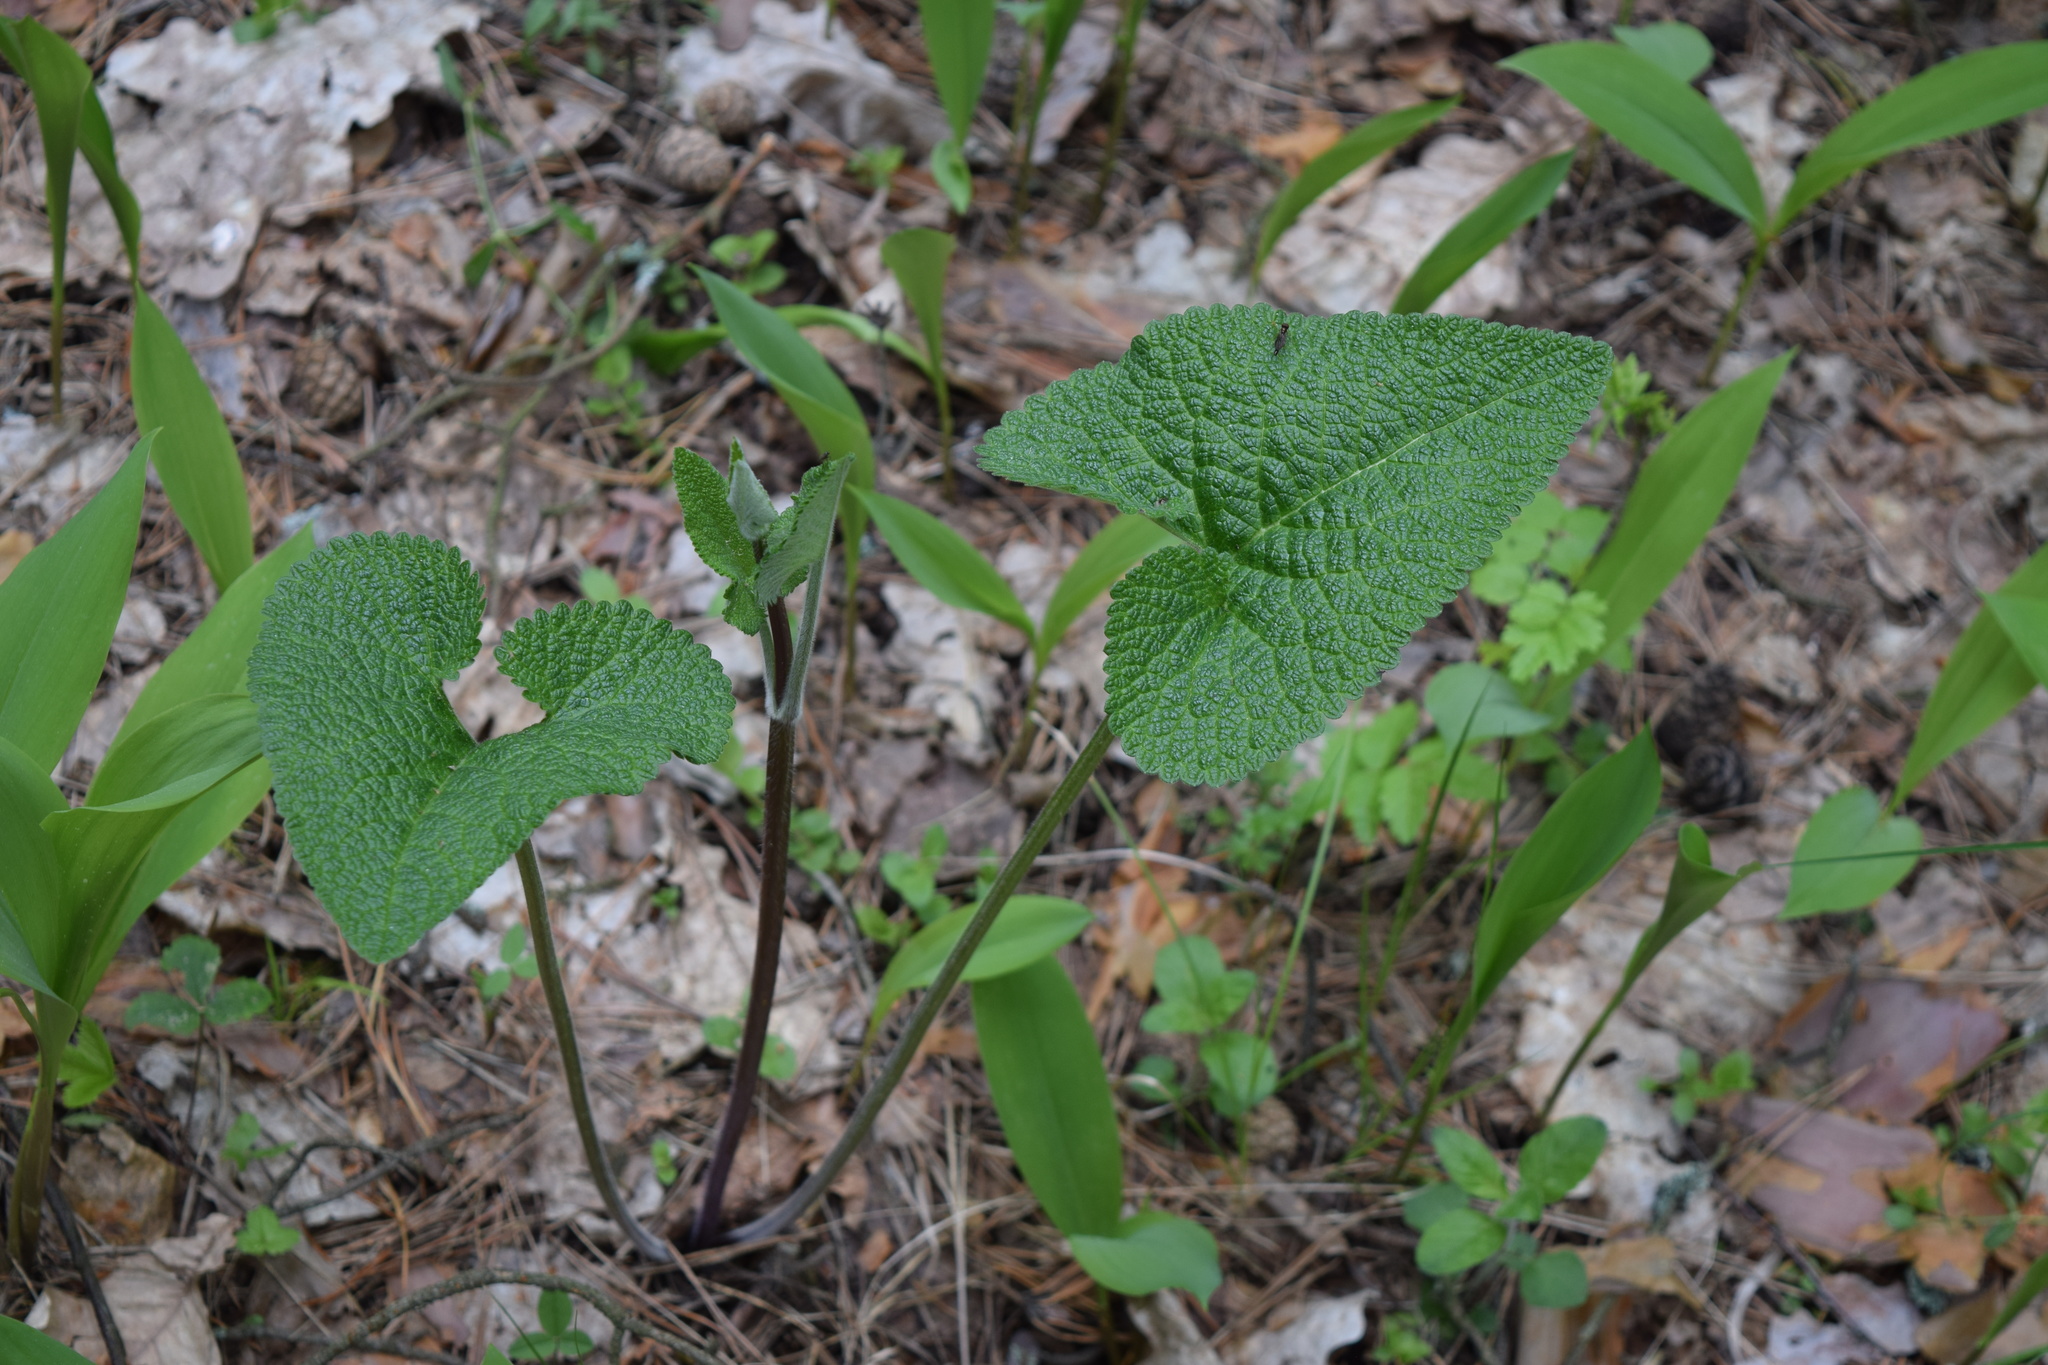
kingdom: Plantae
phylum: Tracheophyta
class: Magnoliopsida
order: Lamiales
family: Lamiaceae
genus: Phlomoides
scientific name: Phlomoides tuberosa
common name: Tuberous jerusalem sage
